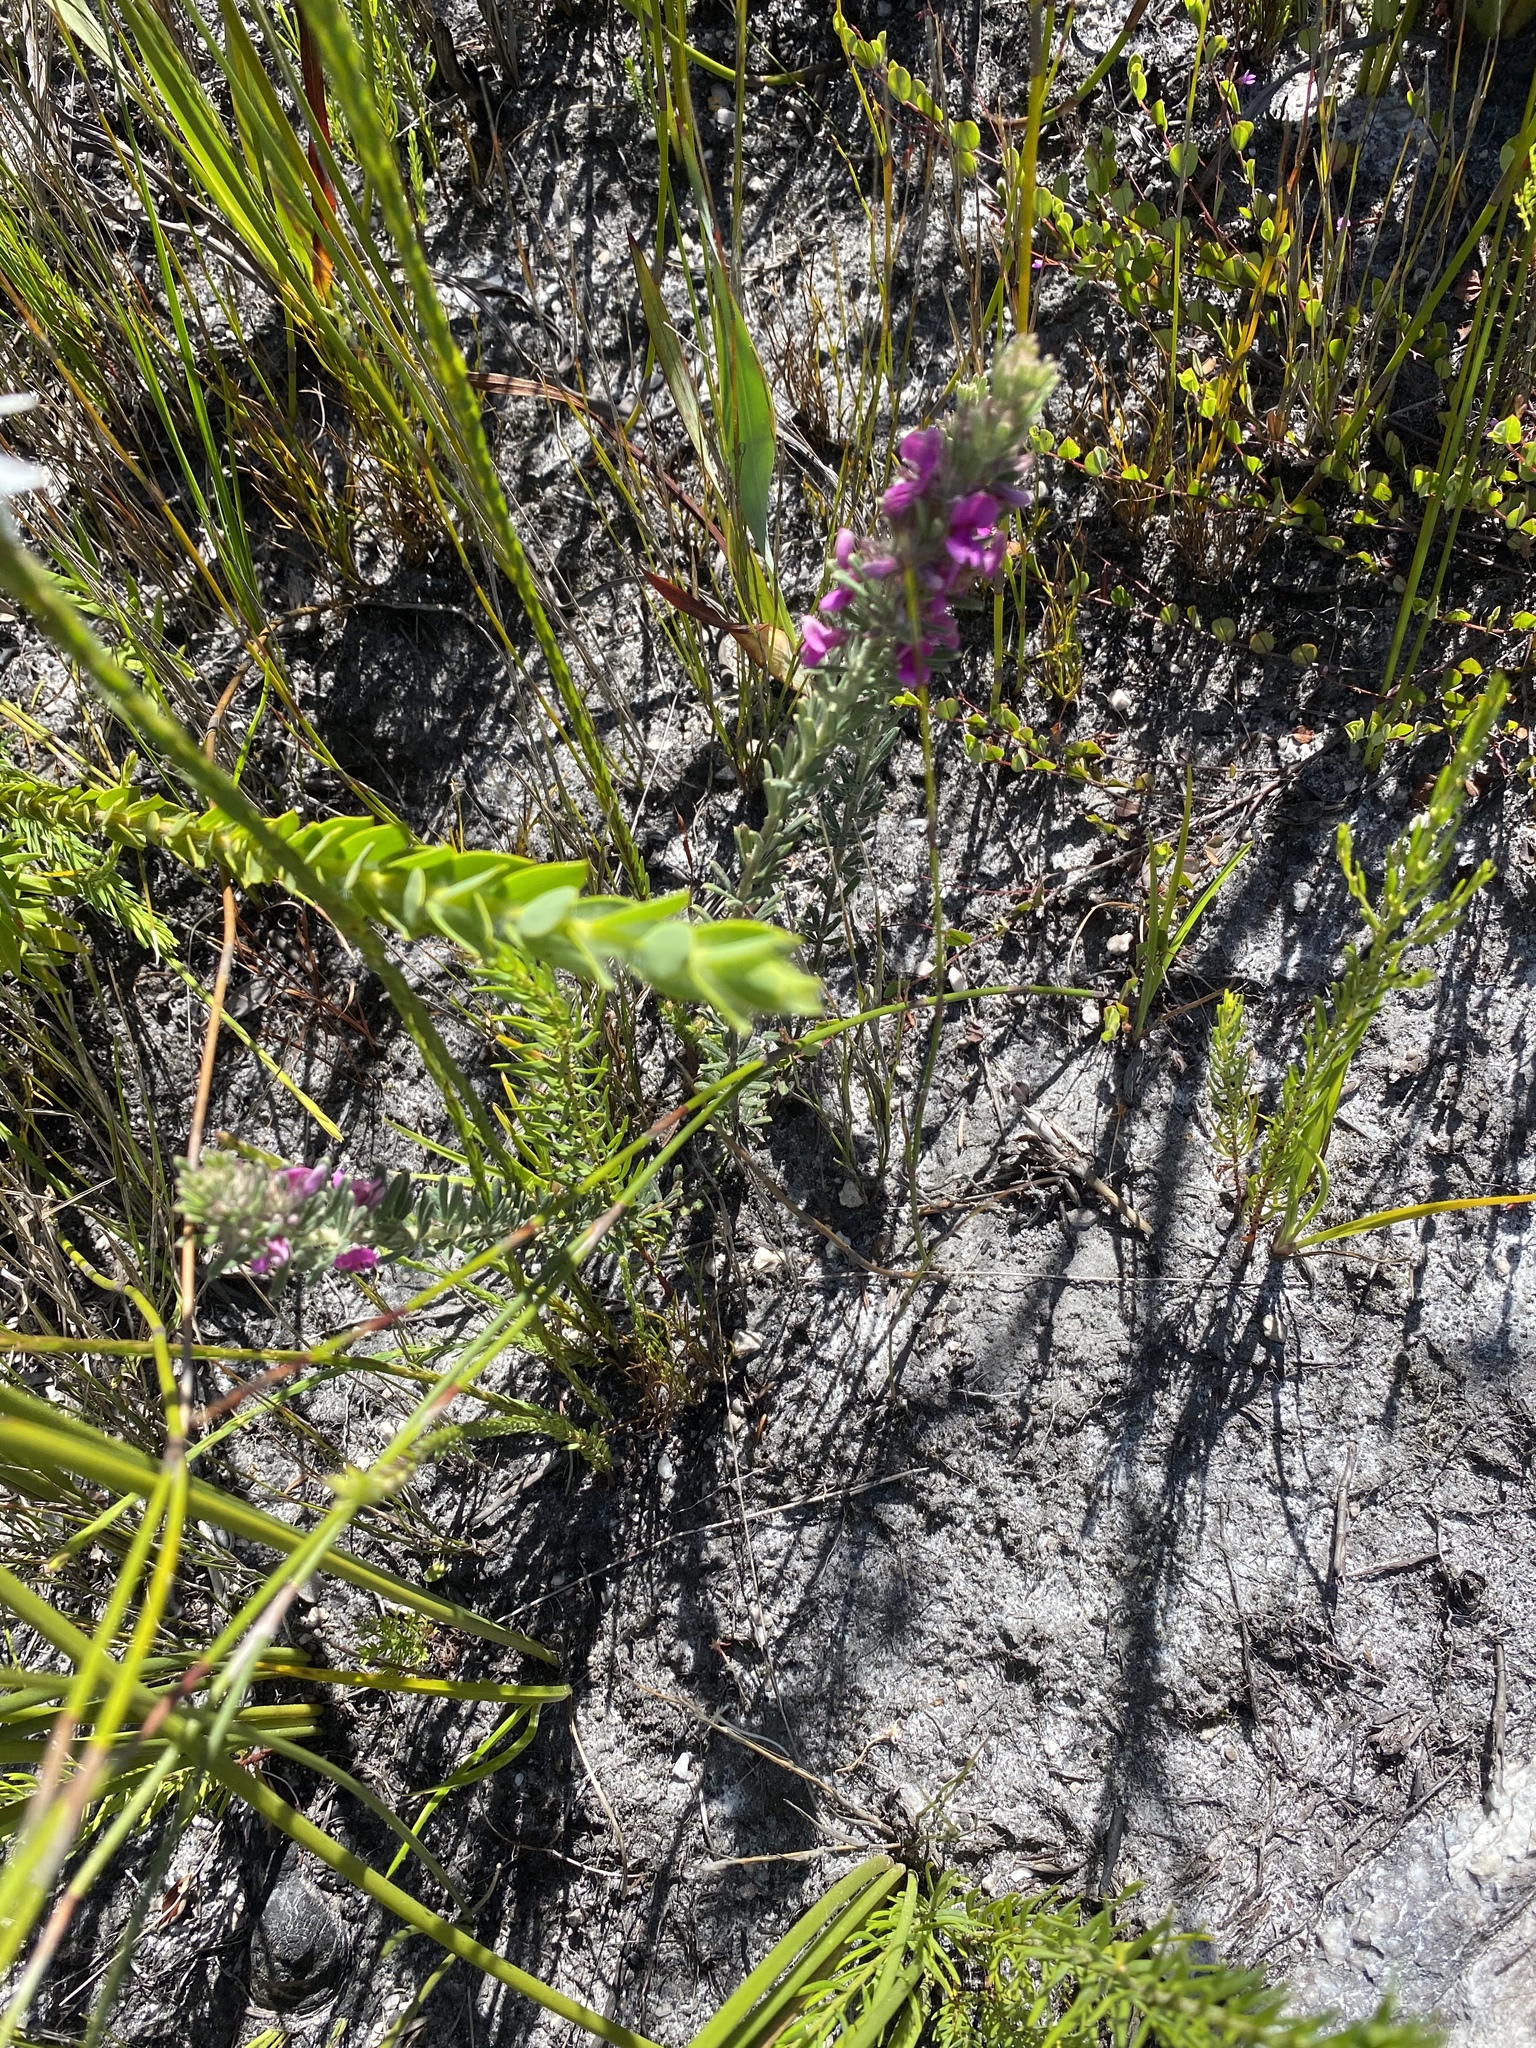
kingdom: Plantae
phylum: Tracheophyta
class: Magnoliopsida
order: Fabales
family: Fabaceae
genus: Indigofera
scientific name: Indigofera rhodantha
